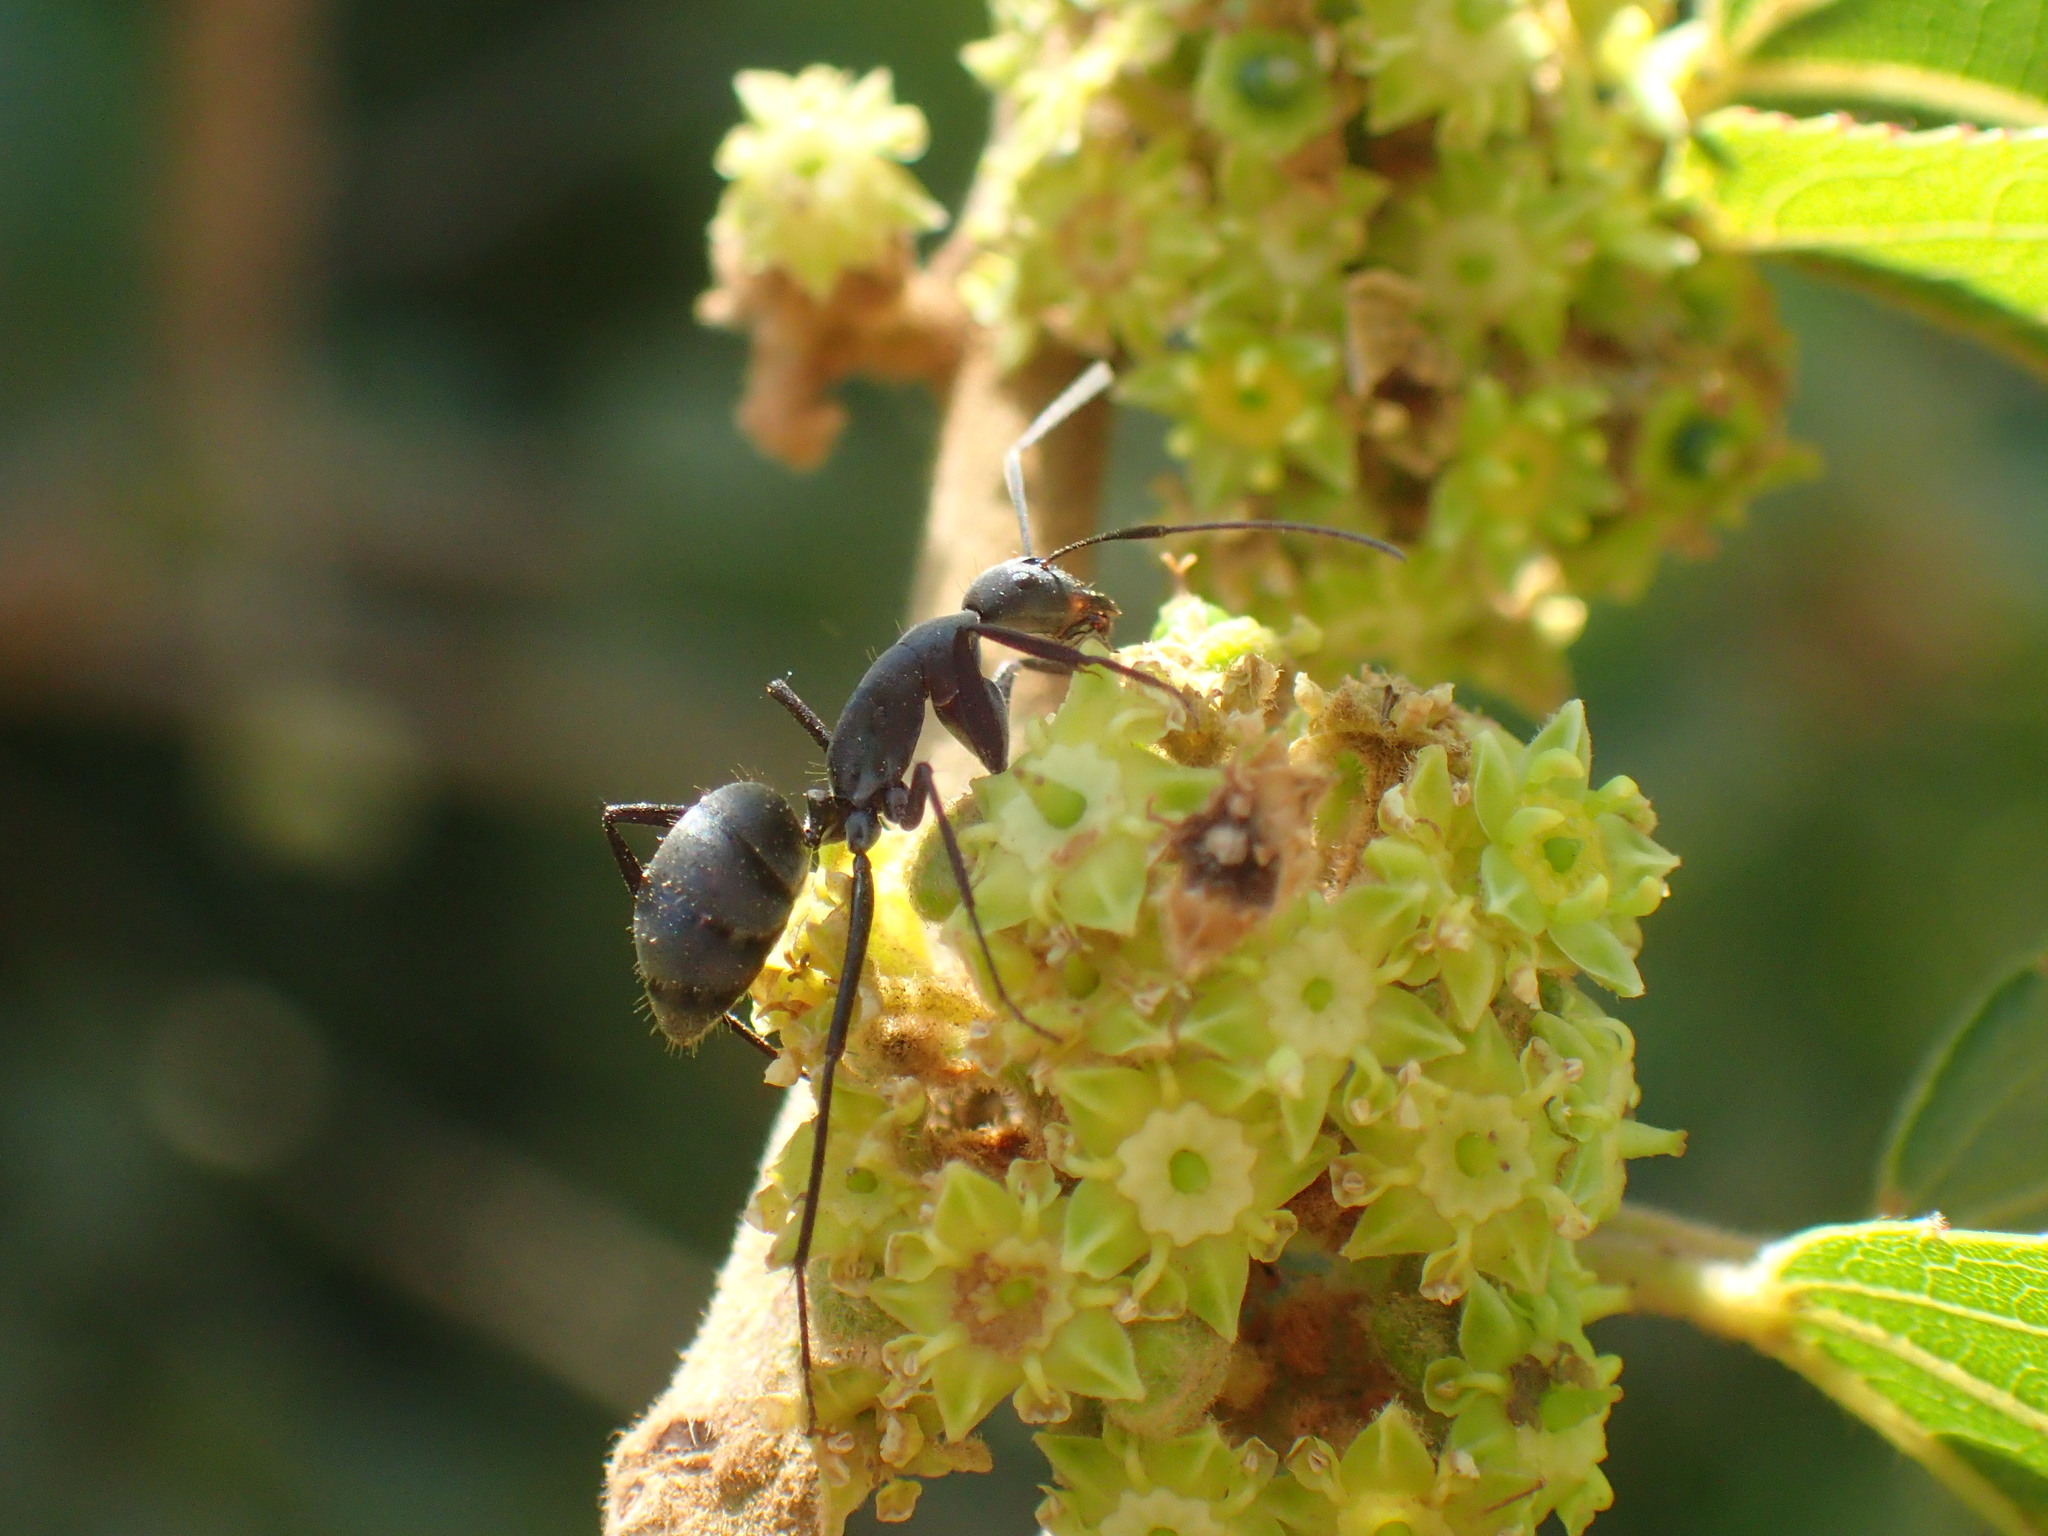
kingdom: Animalia
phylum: Arthropoda
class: Insecta
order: Hymenoptera
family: Formicidae
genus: Camponotus
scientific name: Camponotus cinctellus
